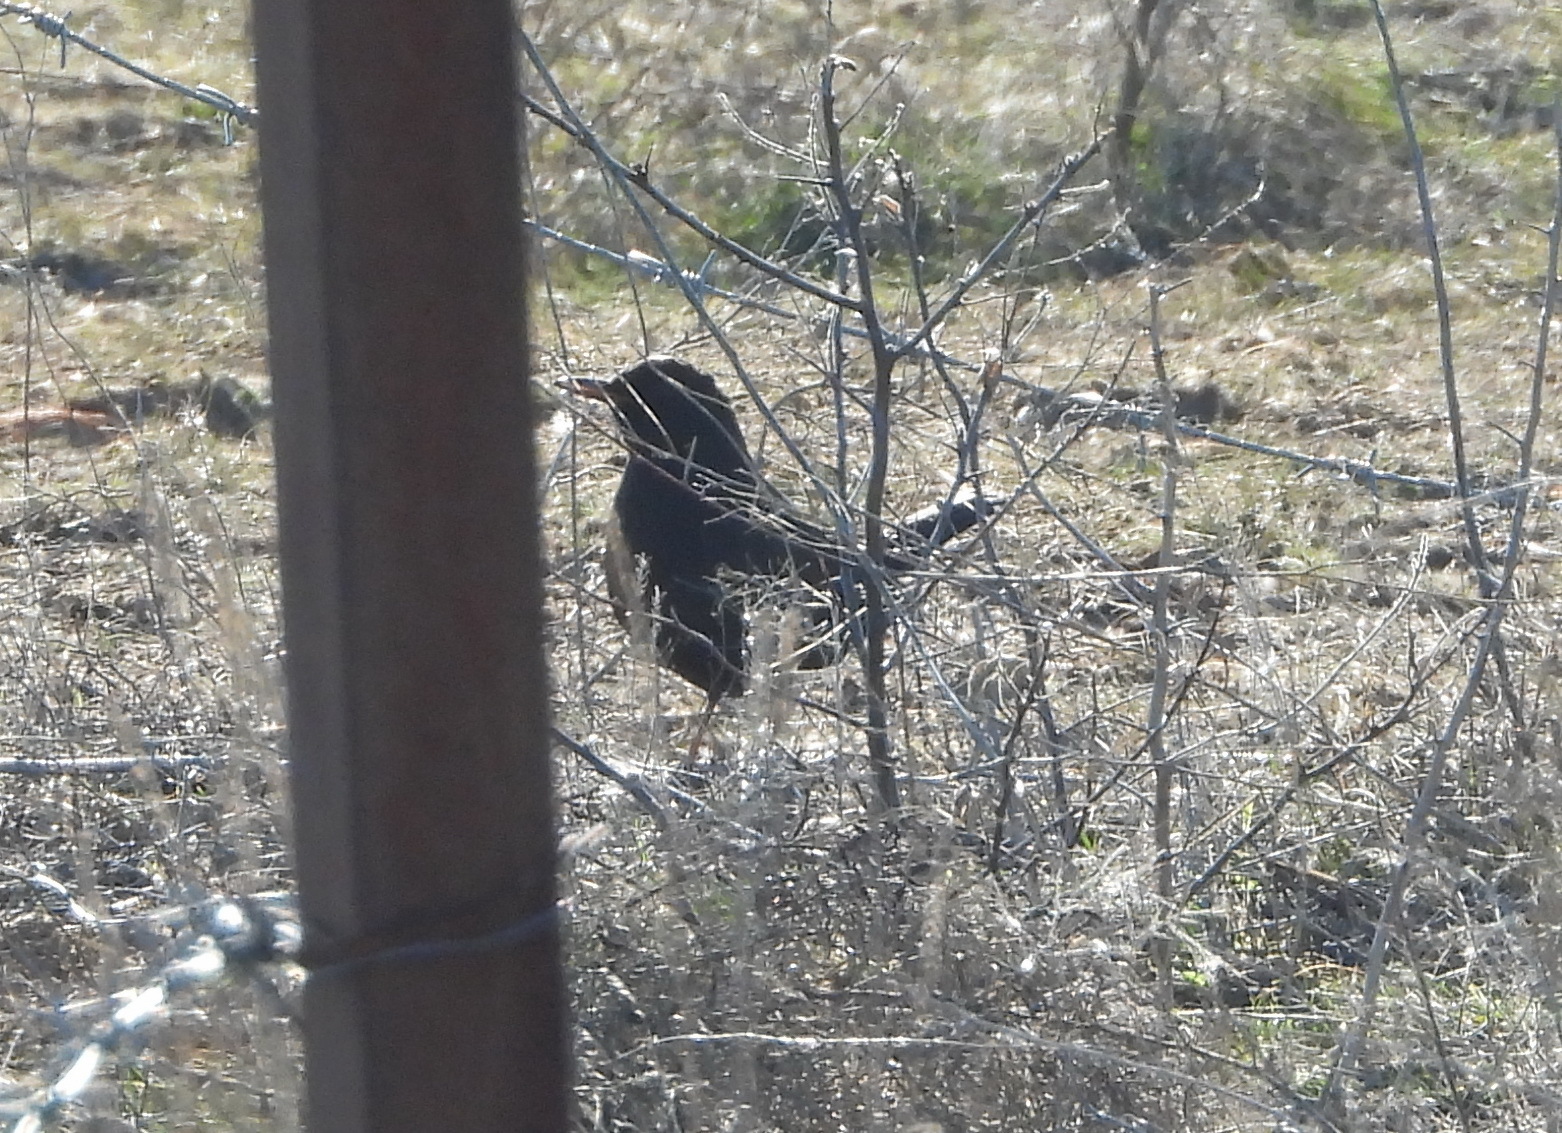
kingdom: Animalia
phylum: Chordata
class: Aves
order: Passeriformes
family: Turdidae
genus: Turdus
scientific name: Turdus merula
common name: Common blackbird
